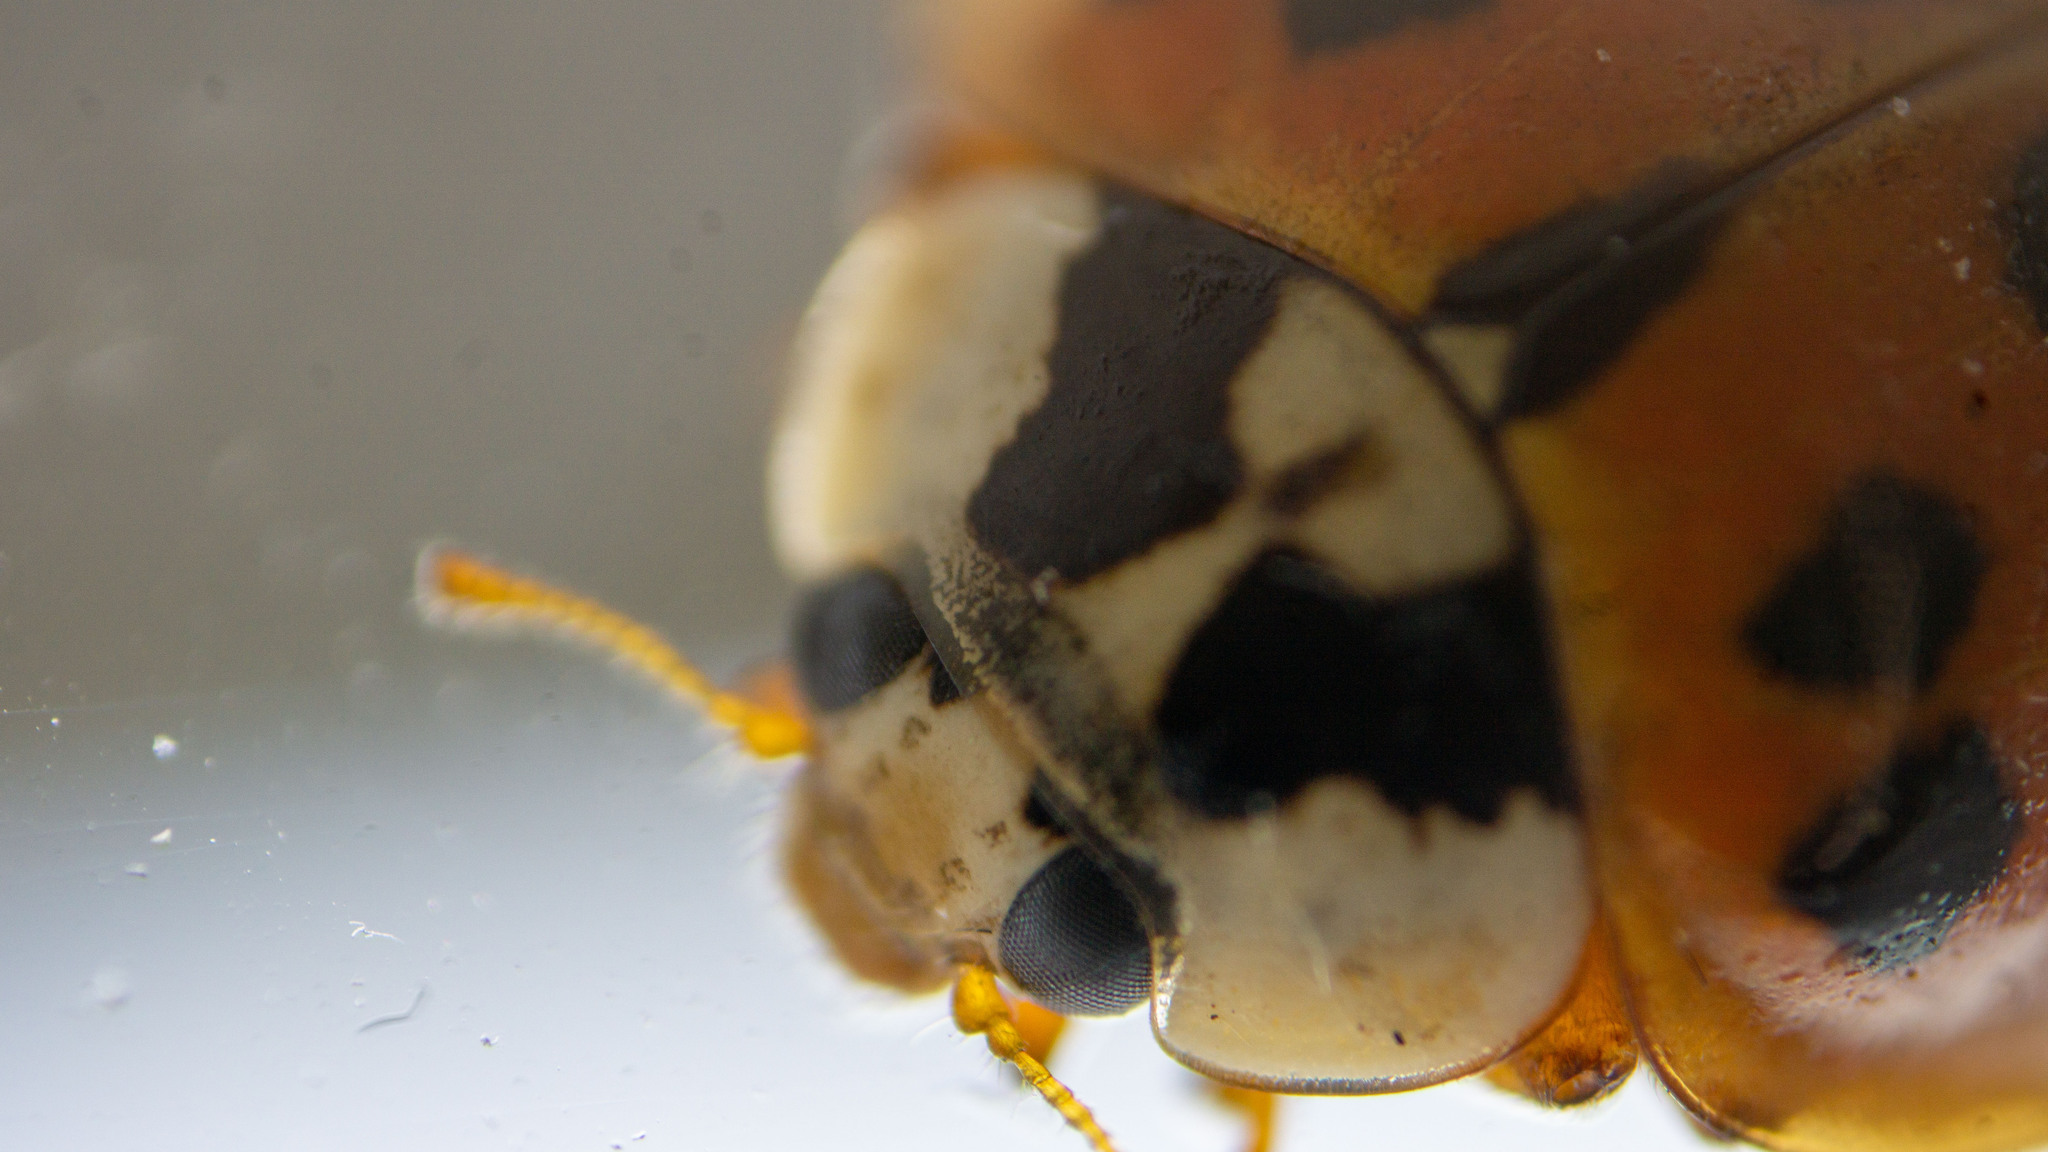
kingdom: Animalia
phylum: Arthropoda
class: Insecta
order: Coleoptera
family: Coccinellidae
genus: Harmonia
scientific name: Harmonia axyridis
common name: Harlequin ladybird
